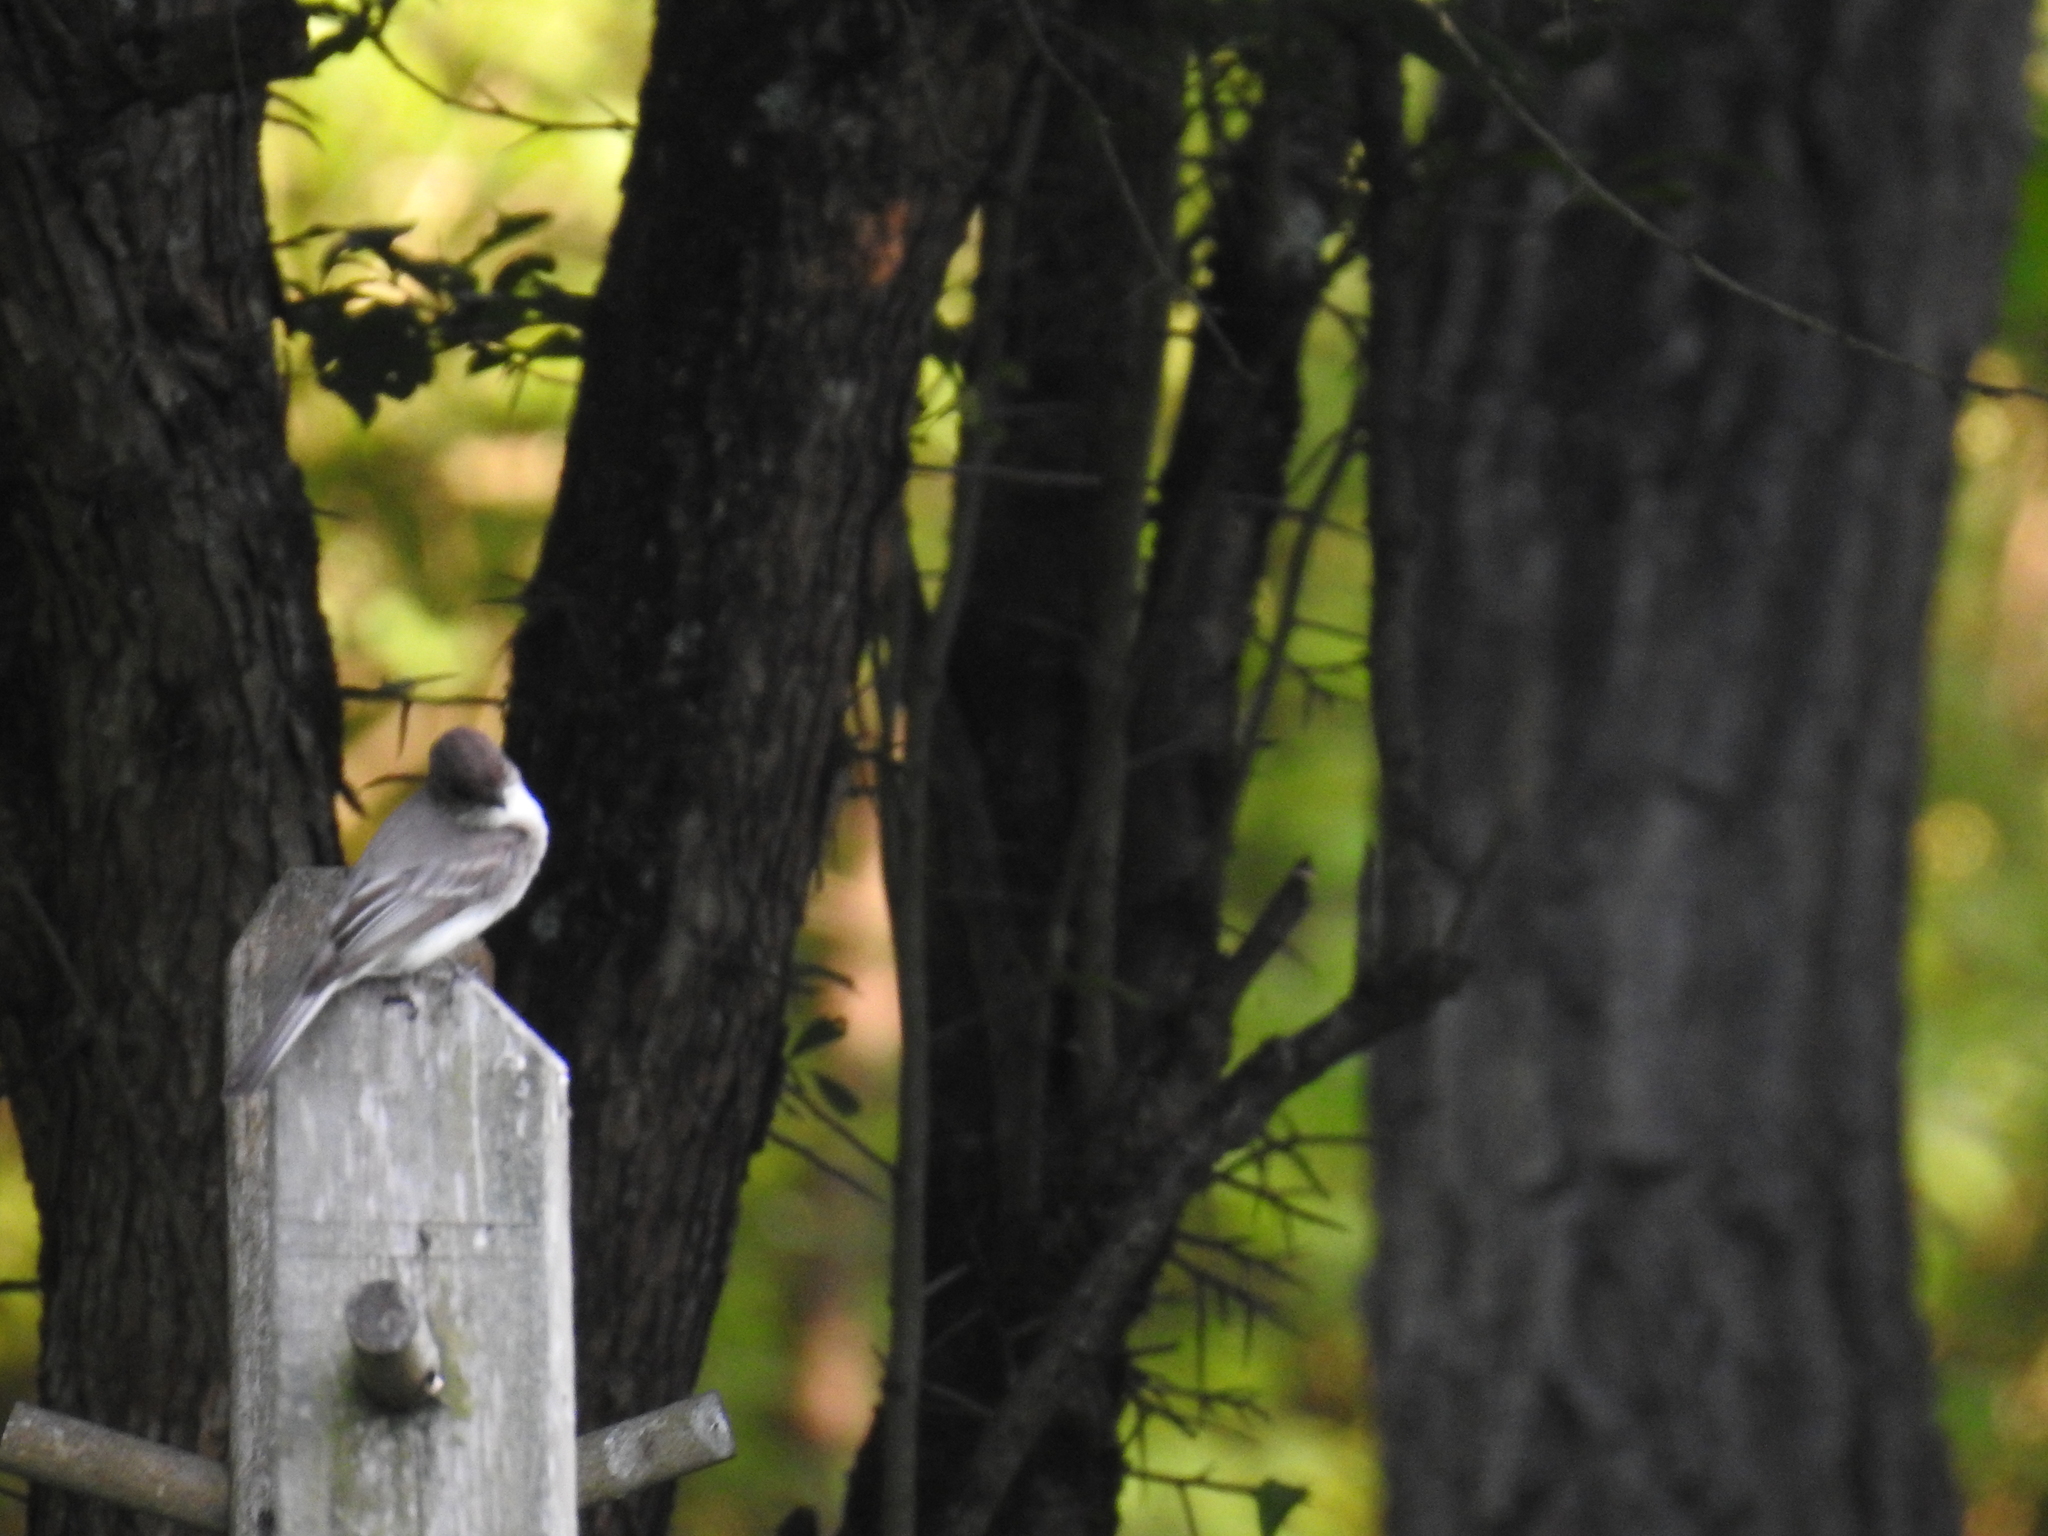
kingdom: Animalia
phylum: Chordata
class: Aves
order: Passeriformes
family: Tyrannidae
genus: Sayornis
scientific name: Sayornis phoebe
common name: Eastern phoebe
